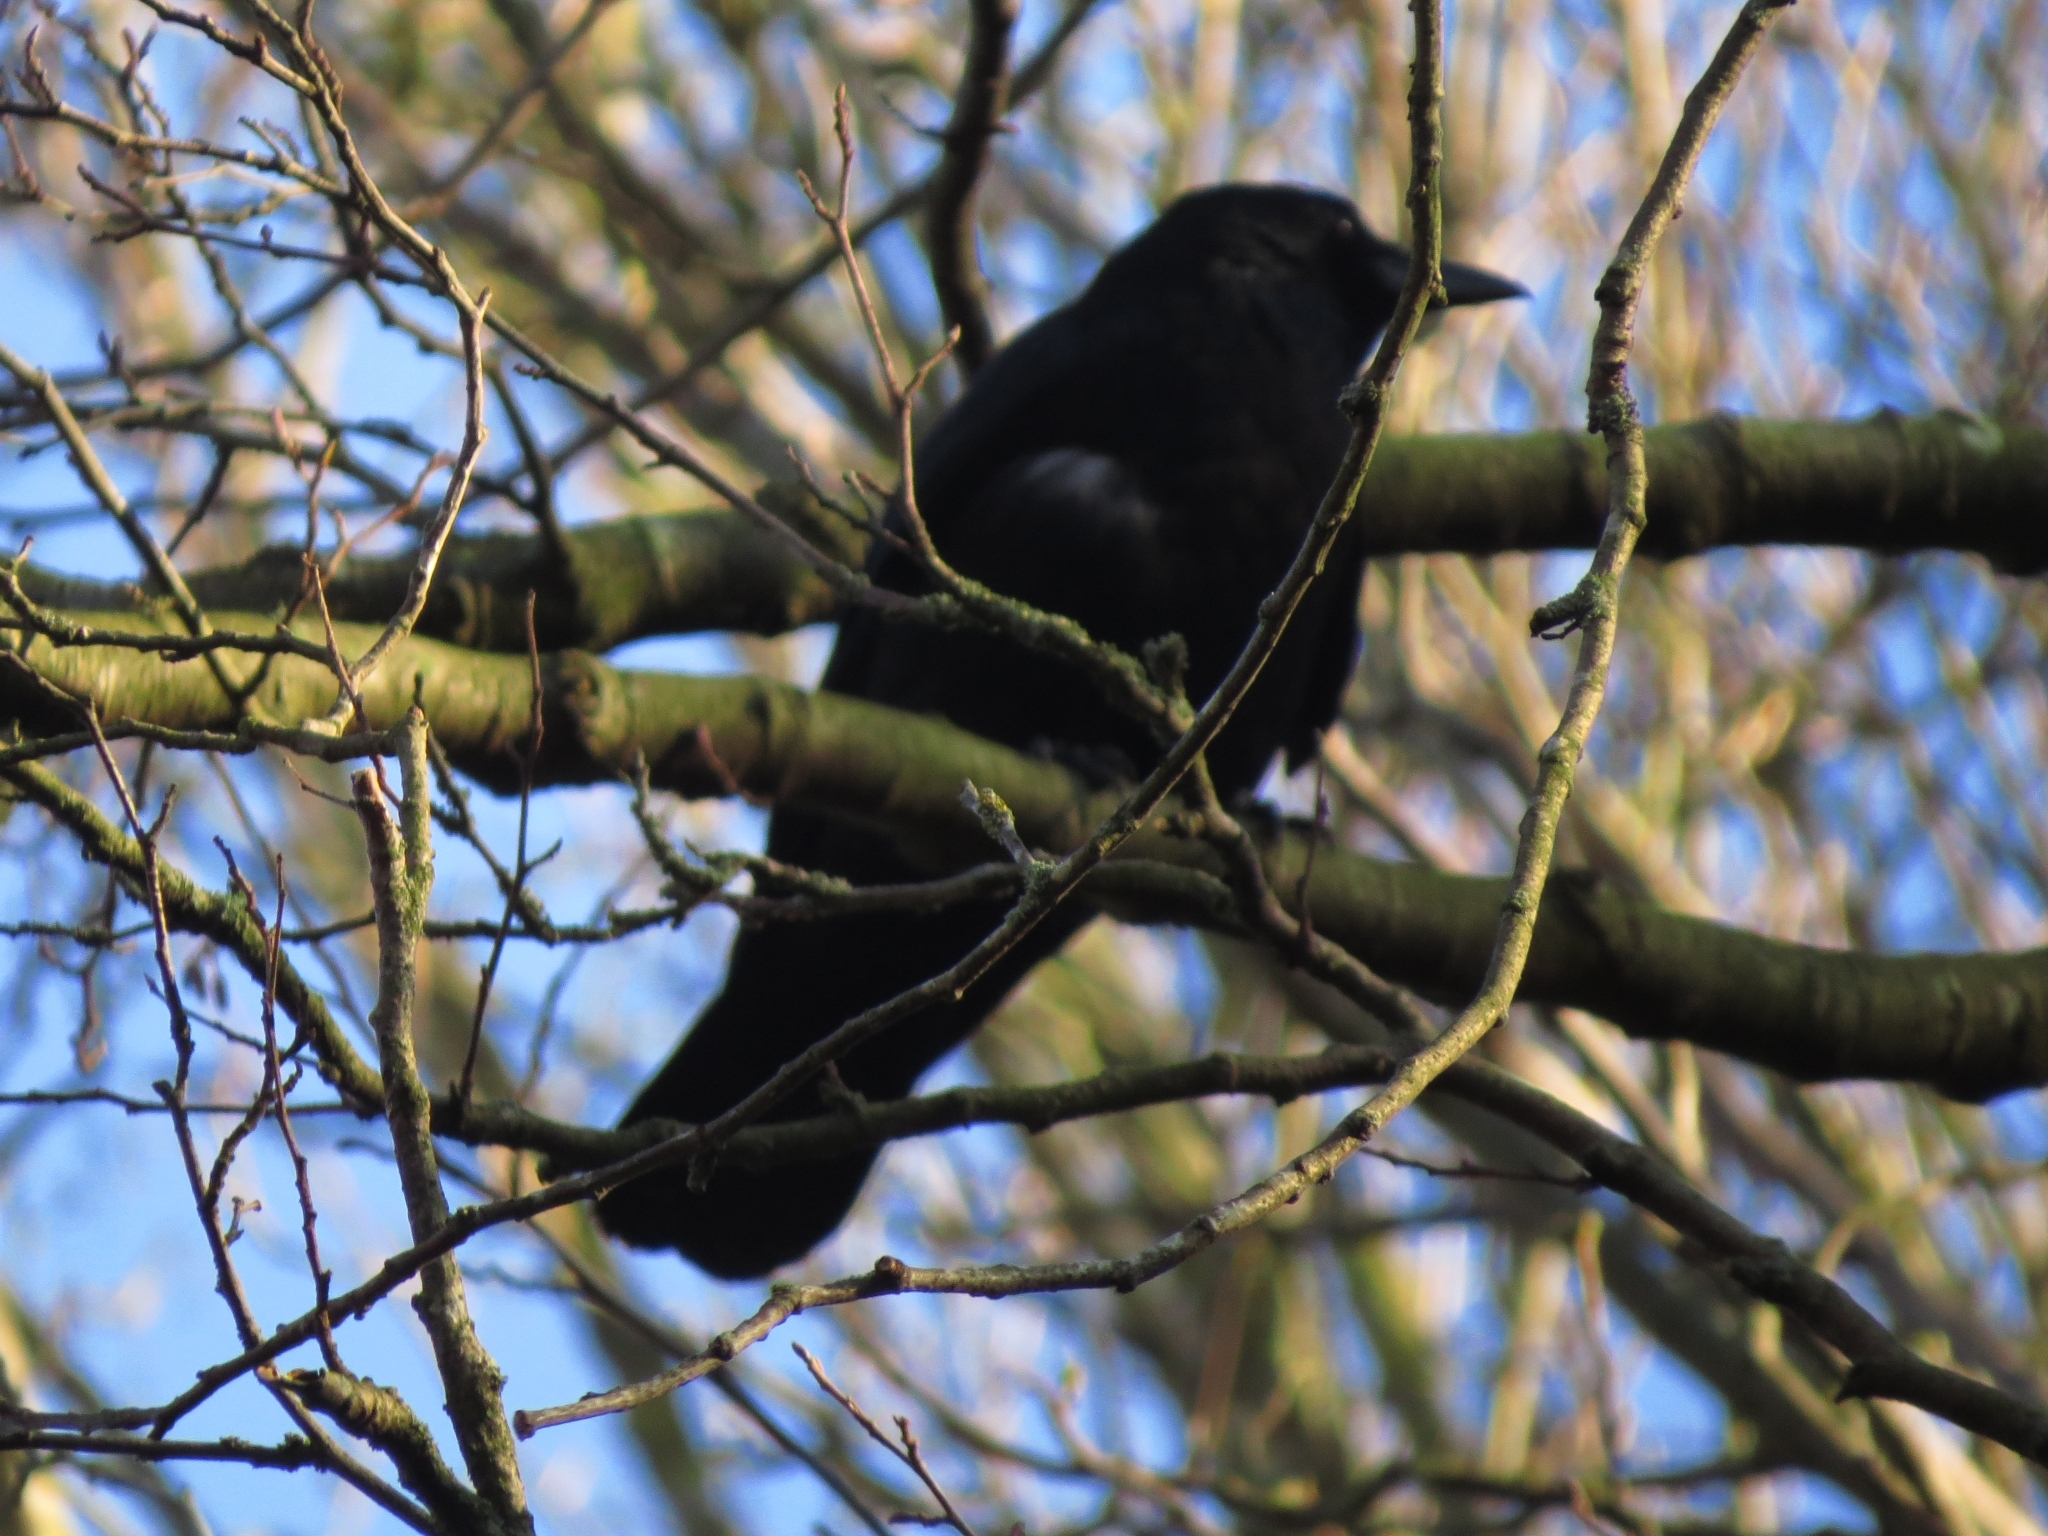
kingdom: Animalia
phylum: Chordata
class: Aves
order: Passeriformes
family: Corvidae
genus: Corvus
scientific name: Corvus corone
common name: Carrion crow
